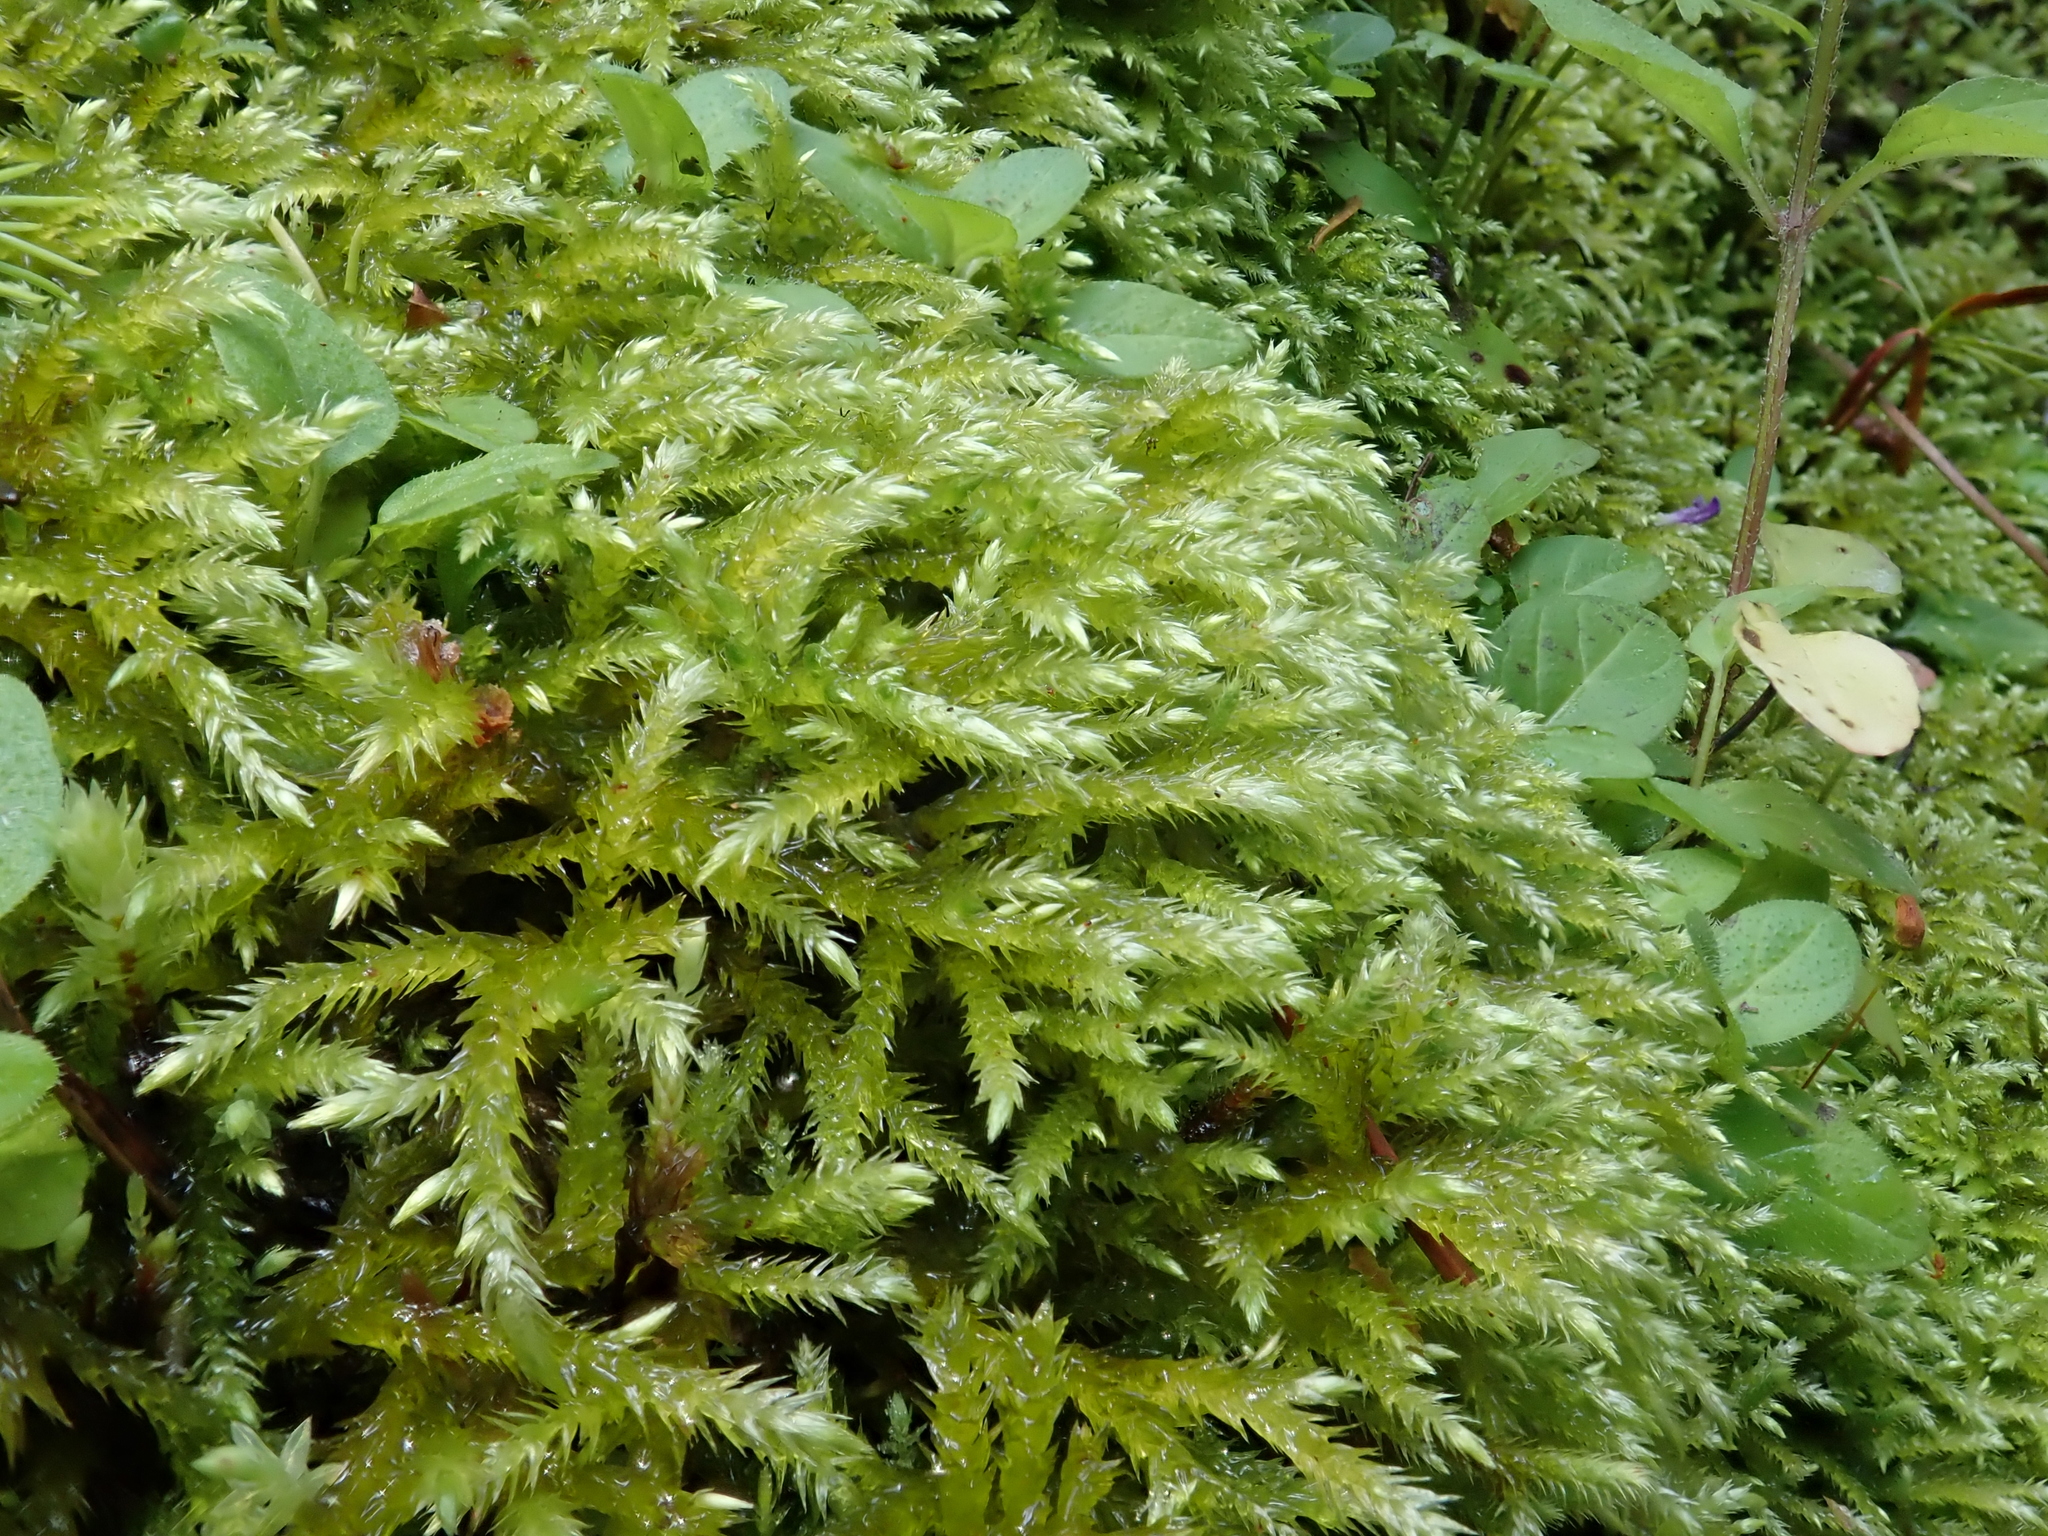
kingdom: Plantae
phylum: Bryophyta
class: Bryopsida
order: Hypnales
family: Brachytheciaceae
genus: Brachythecium
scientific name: Brachythecium rivulare
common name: River ragged moss
